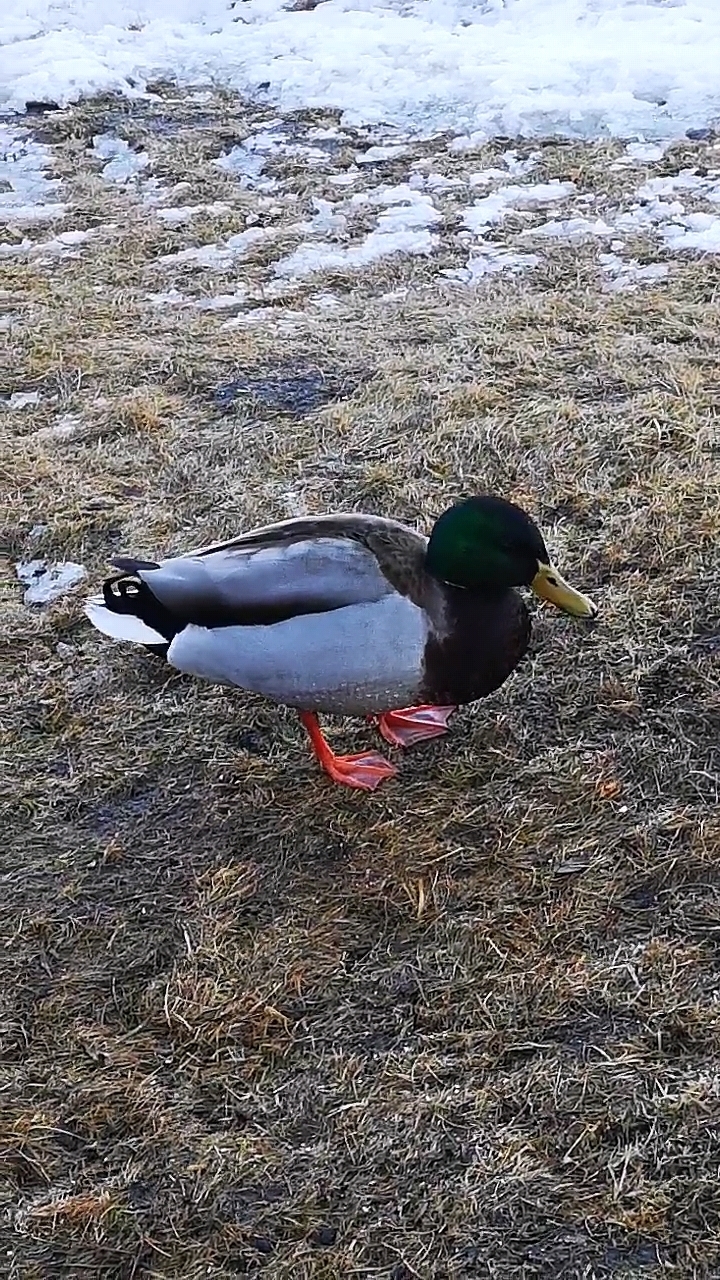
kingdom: Animalia
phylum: Chordata
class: Aves
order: Anseriformes
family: Anatidae
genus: Anas
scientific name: Anas platyrhynchos
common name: Mallard
